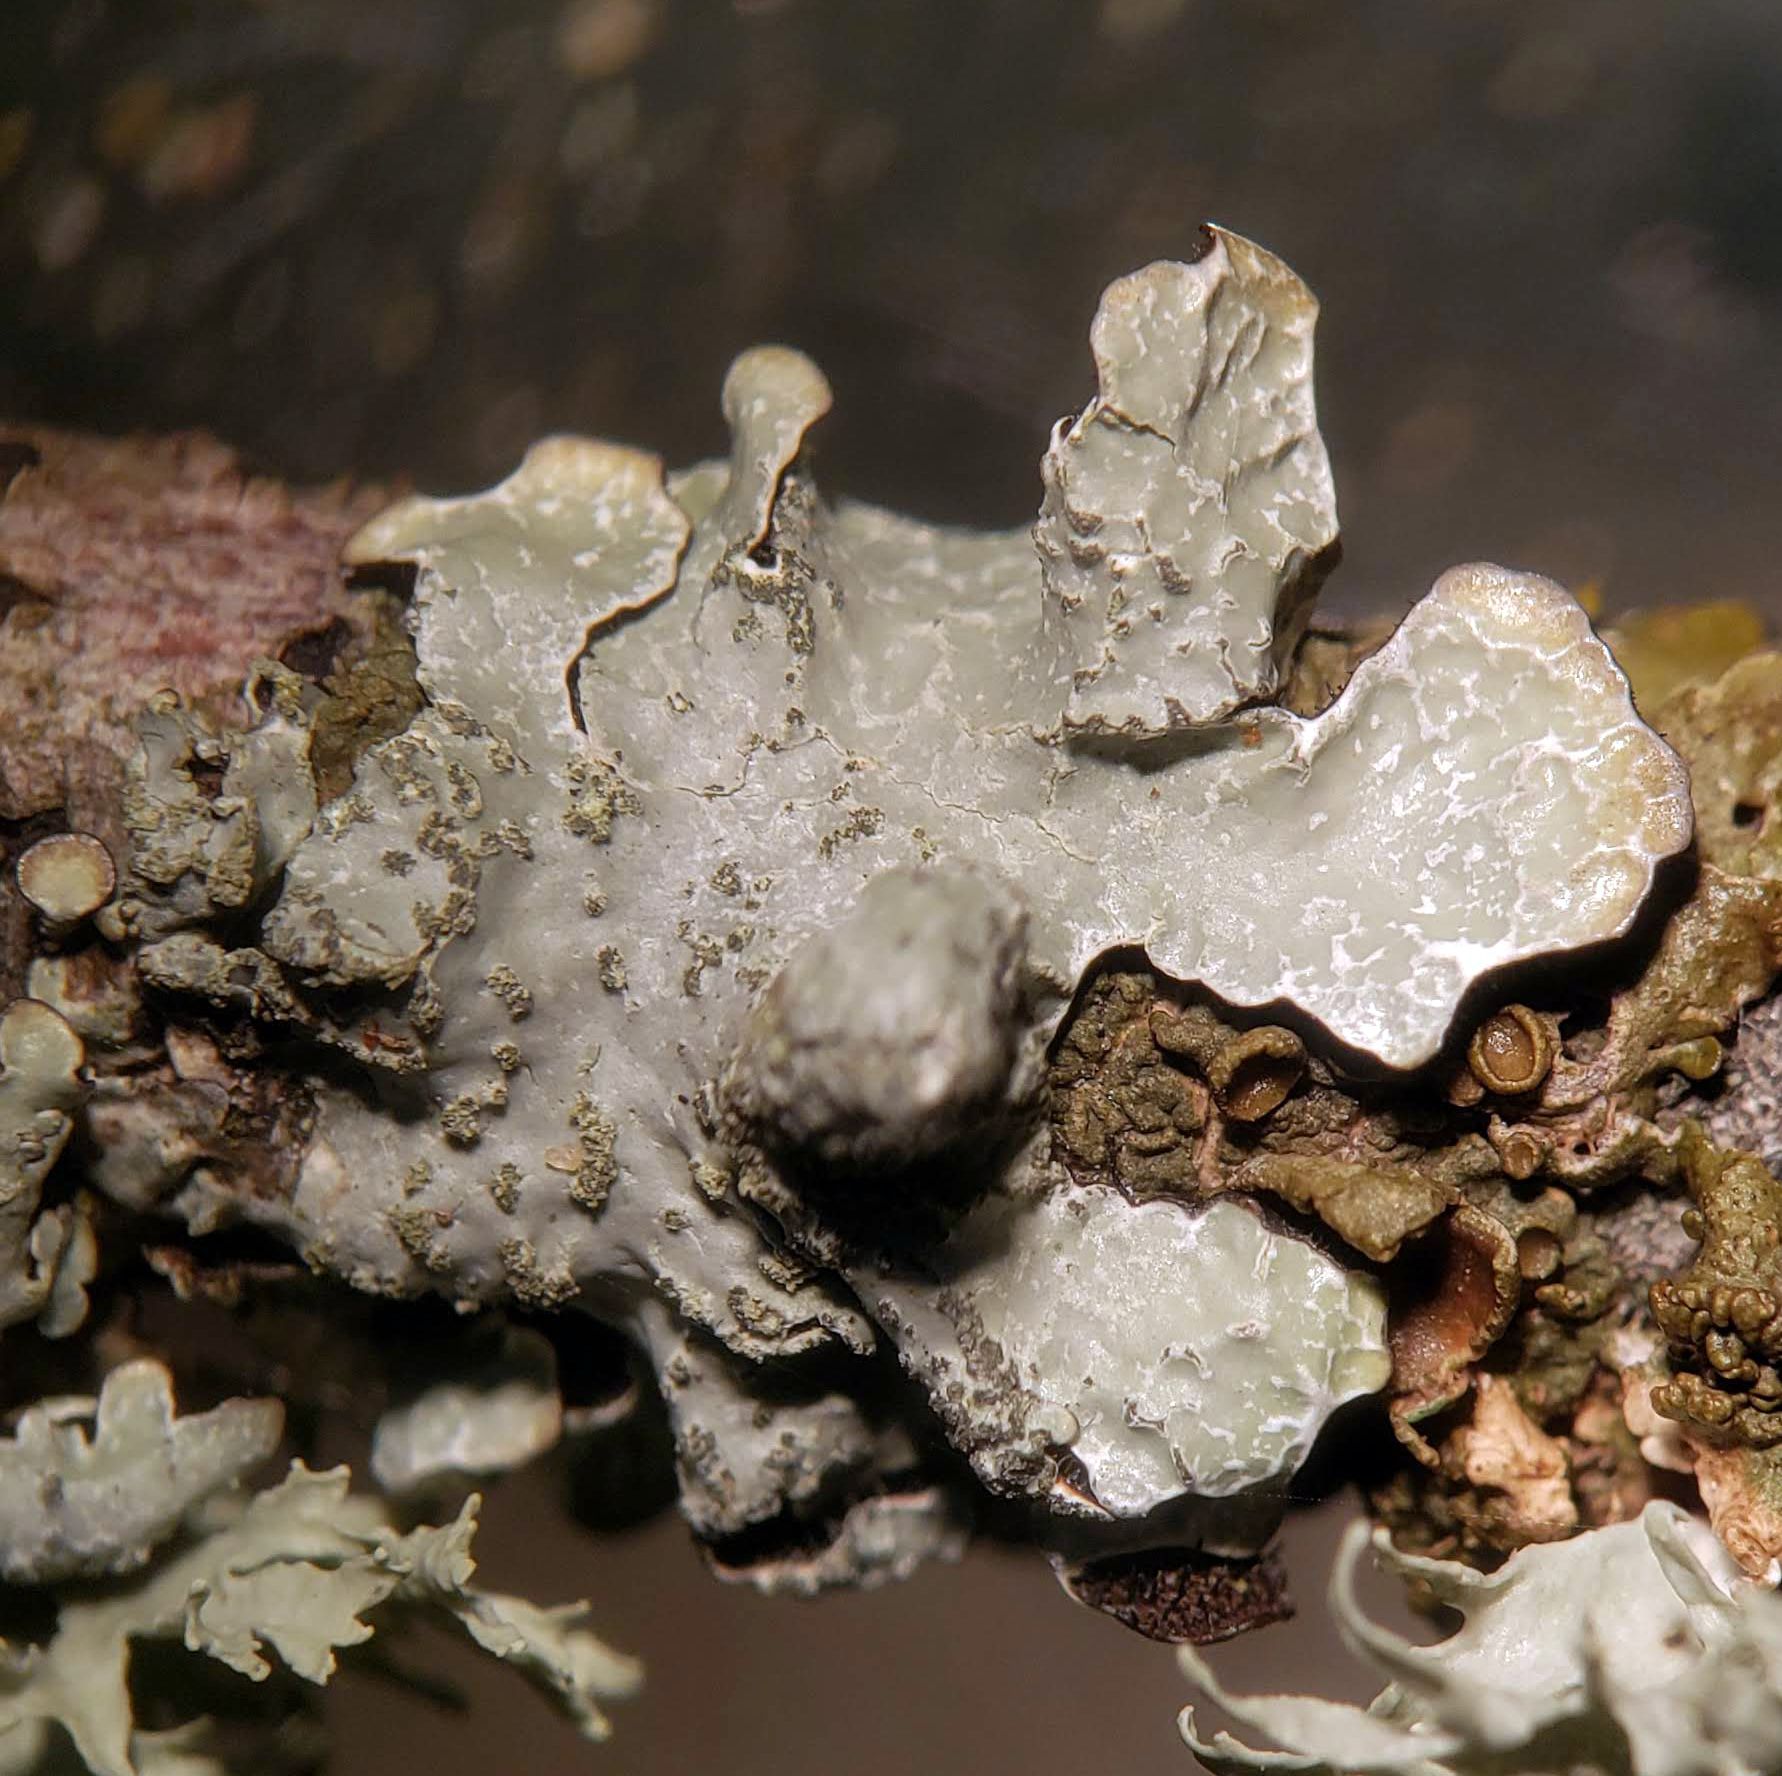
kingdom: Fungi
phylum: Ascomycota
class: Lecanoromycetes
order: Lecanorales
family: Parmeliaceae
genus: Parmelia
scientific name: Parmelia sulcata
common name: Netted shield lichen
